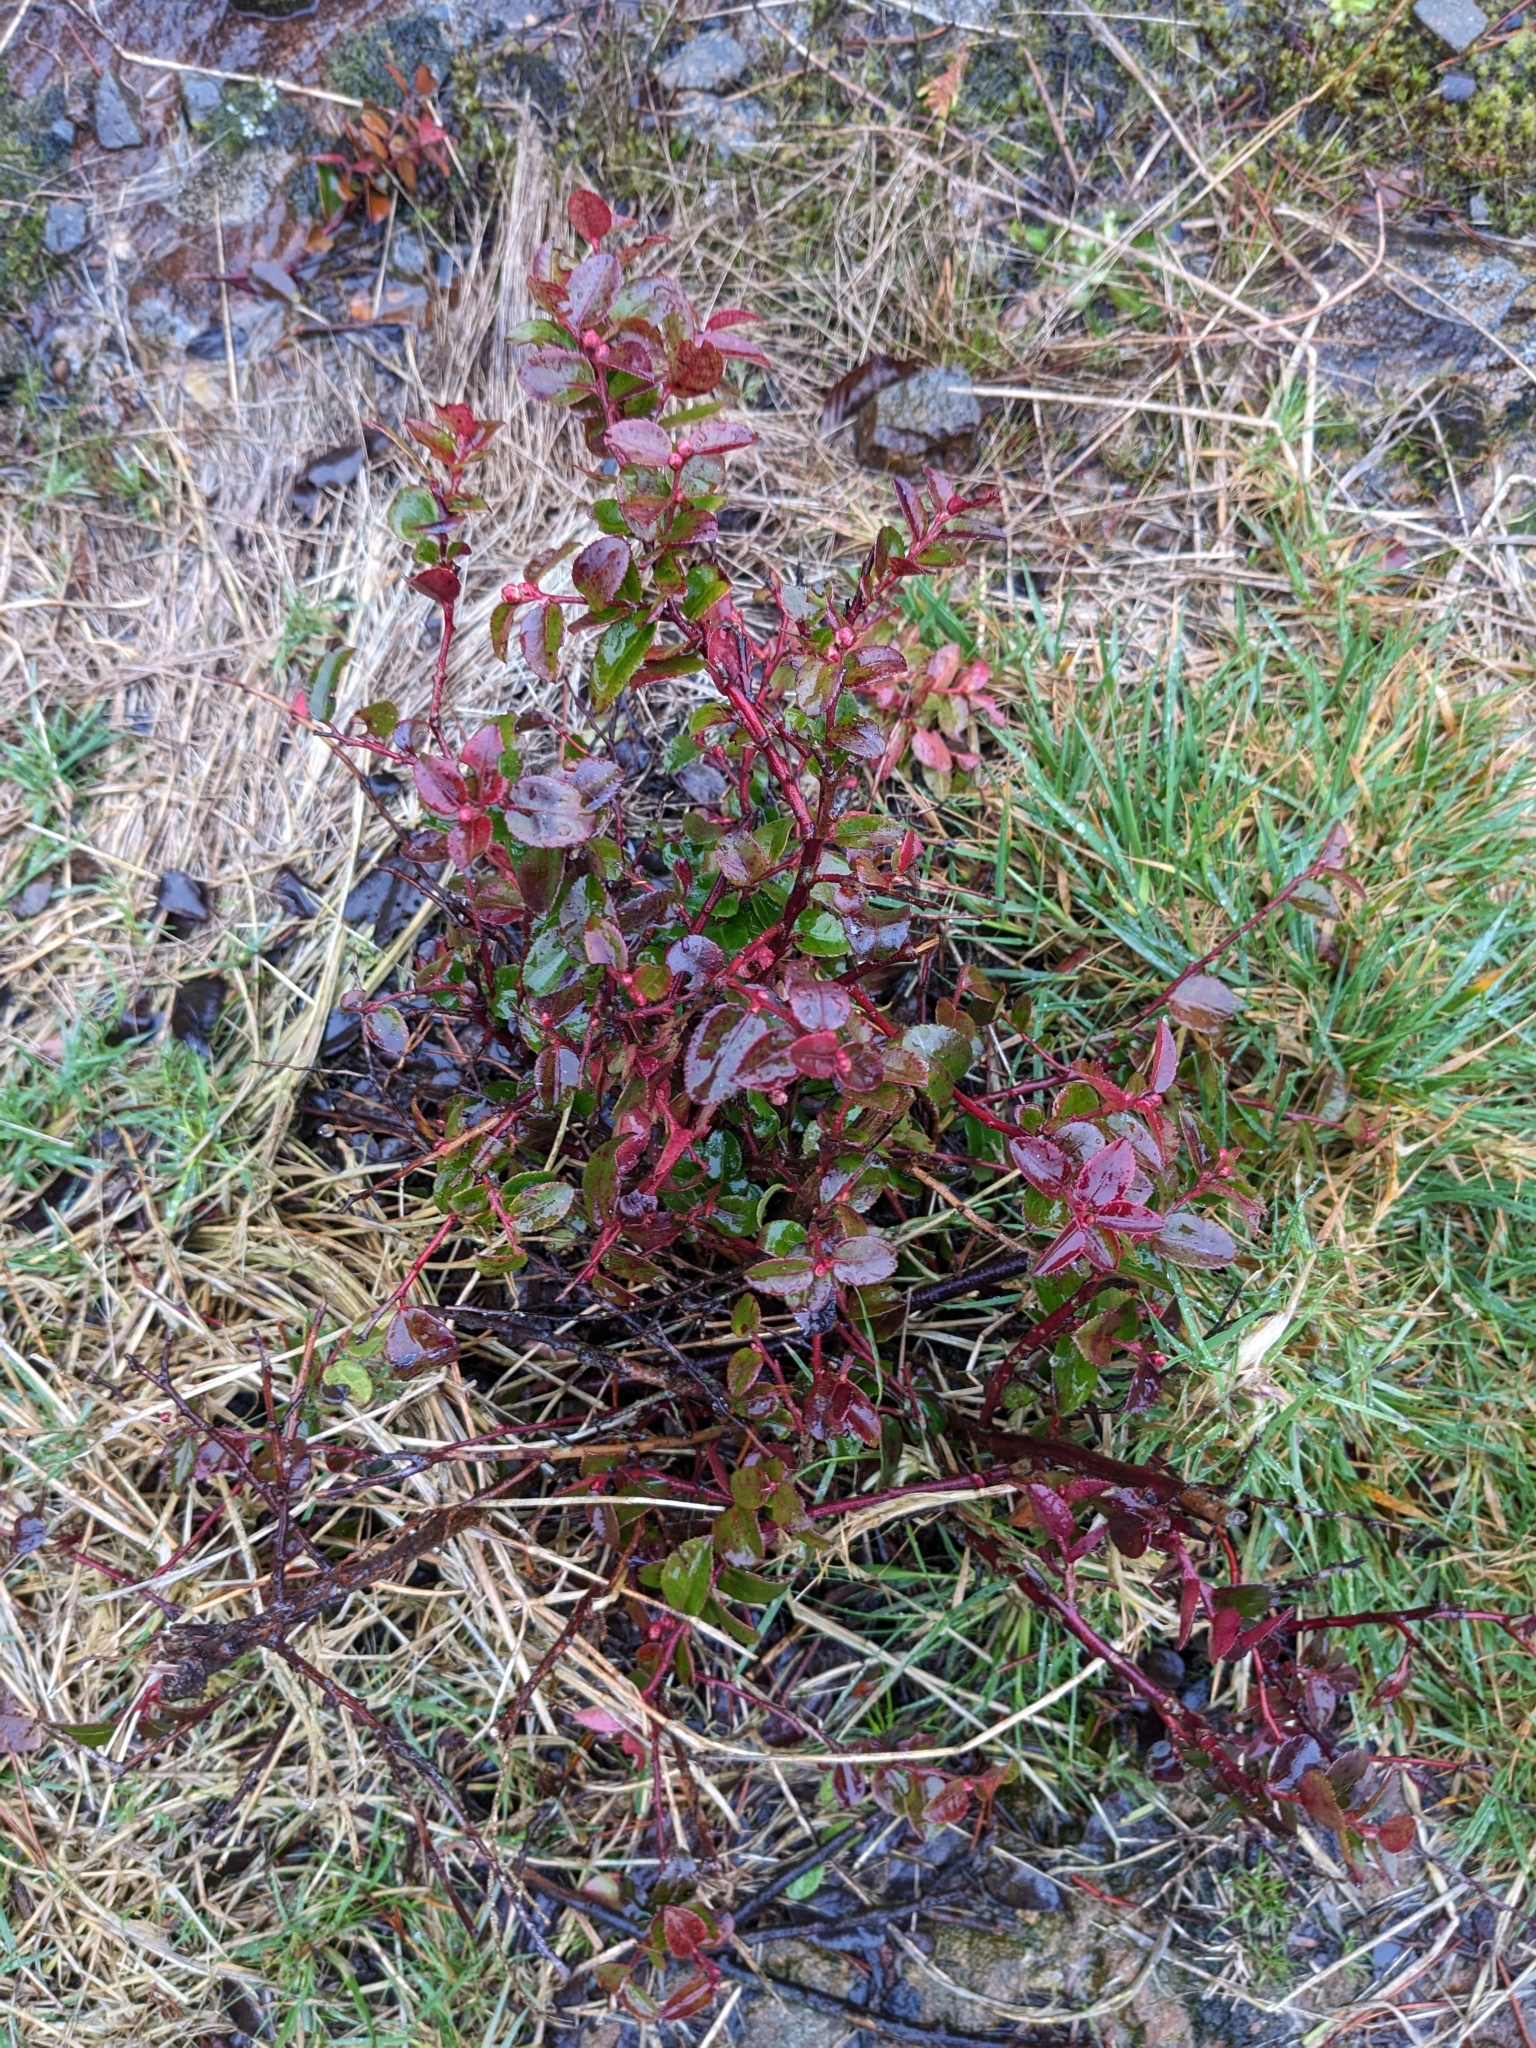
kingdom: Plantae
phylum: Tracheophyta
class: Magnoliopsida
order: Ericales
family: Ericaceae
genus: Vaccinium
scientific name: Vaccinium ovatum
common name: California-huckleberry
